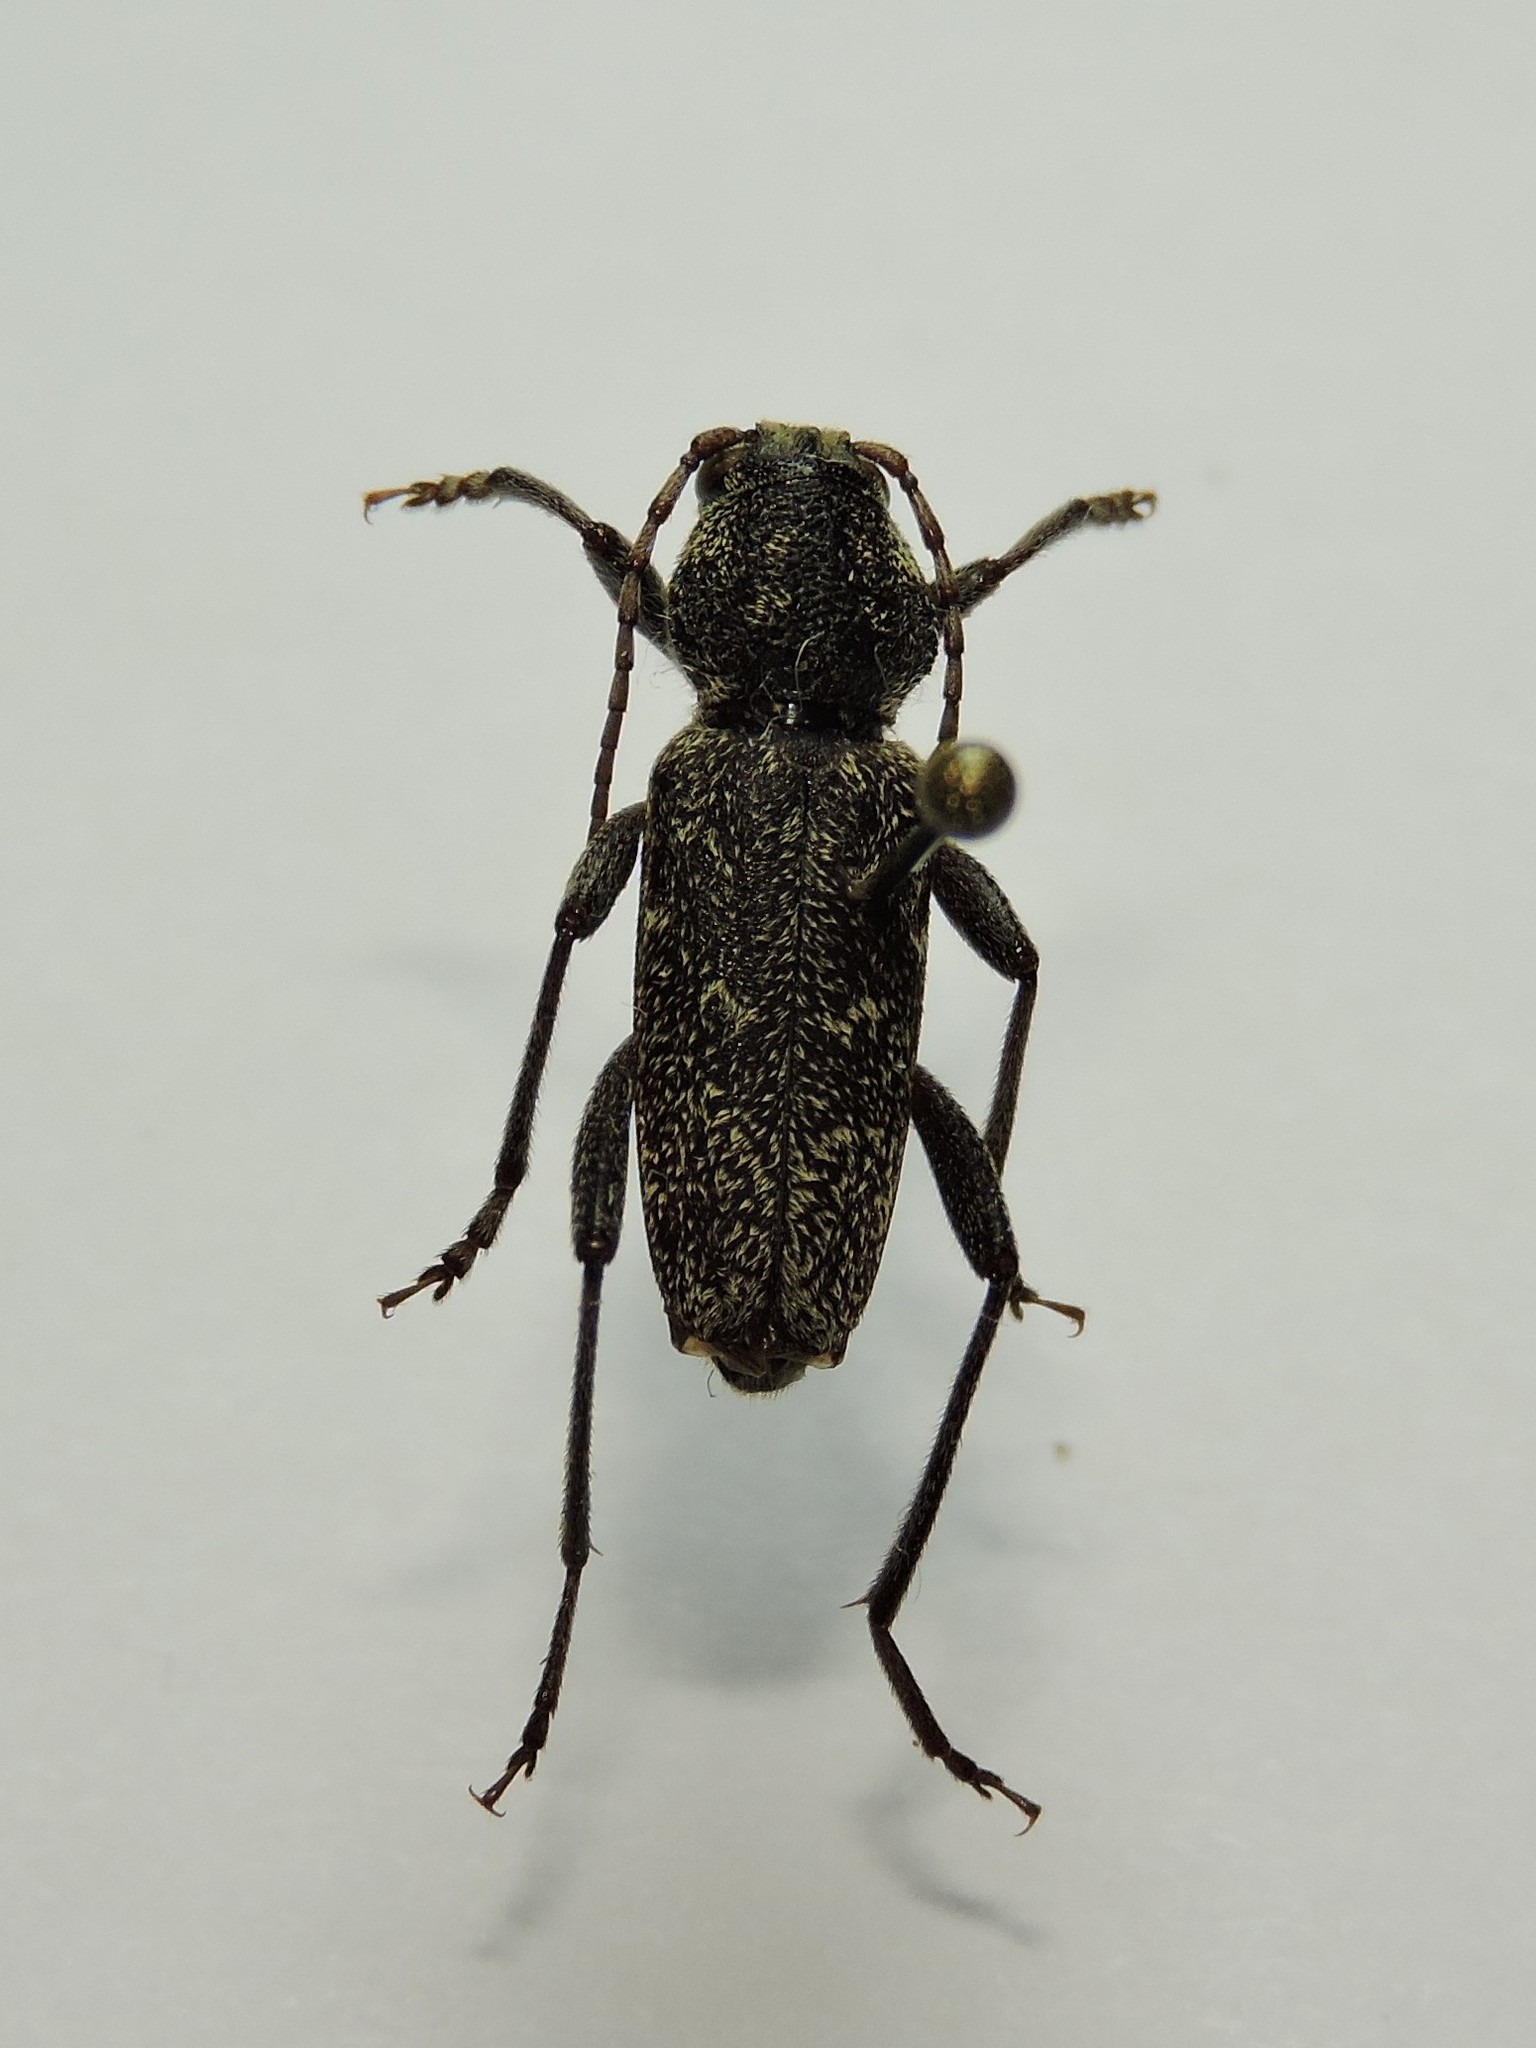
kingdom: Animalia
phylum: Arthropoda
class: Insecta
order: Coleoptera
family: Cerambycidae
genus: Xylotrechus
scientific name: Xylotrechus rusticus
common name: Grey tiger long-horned beetle
